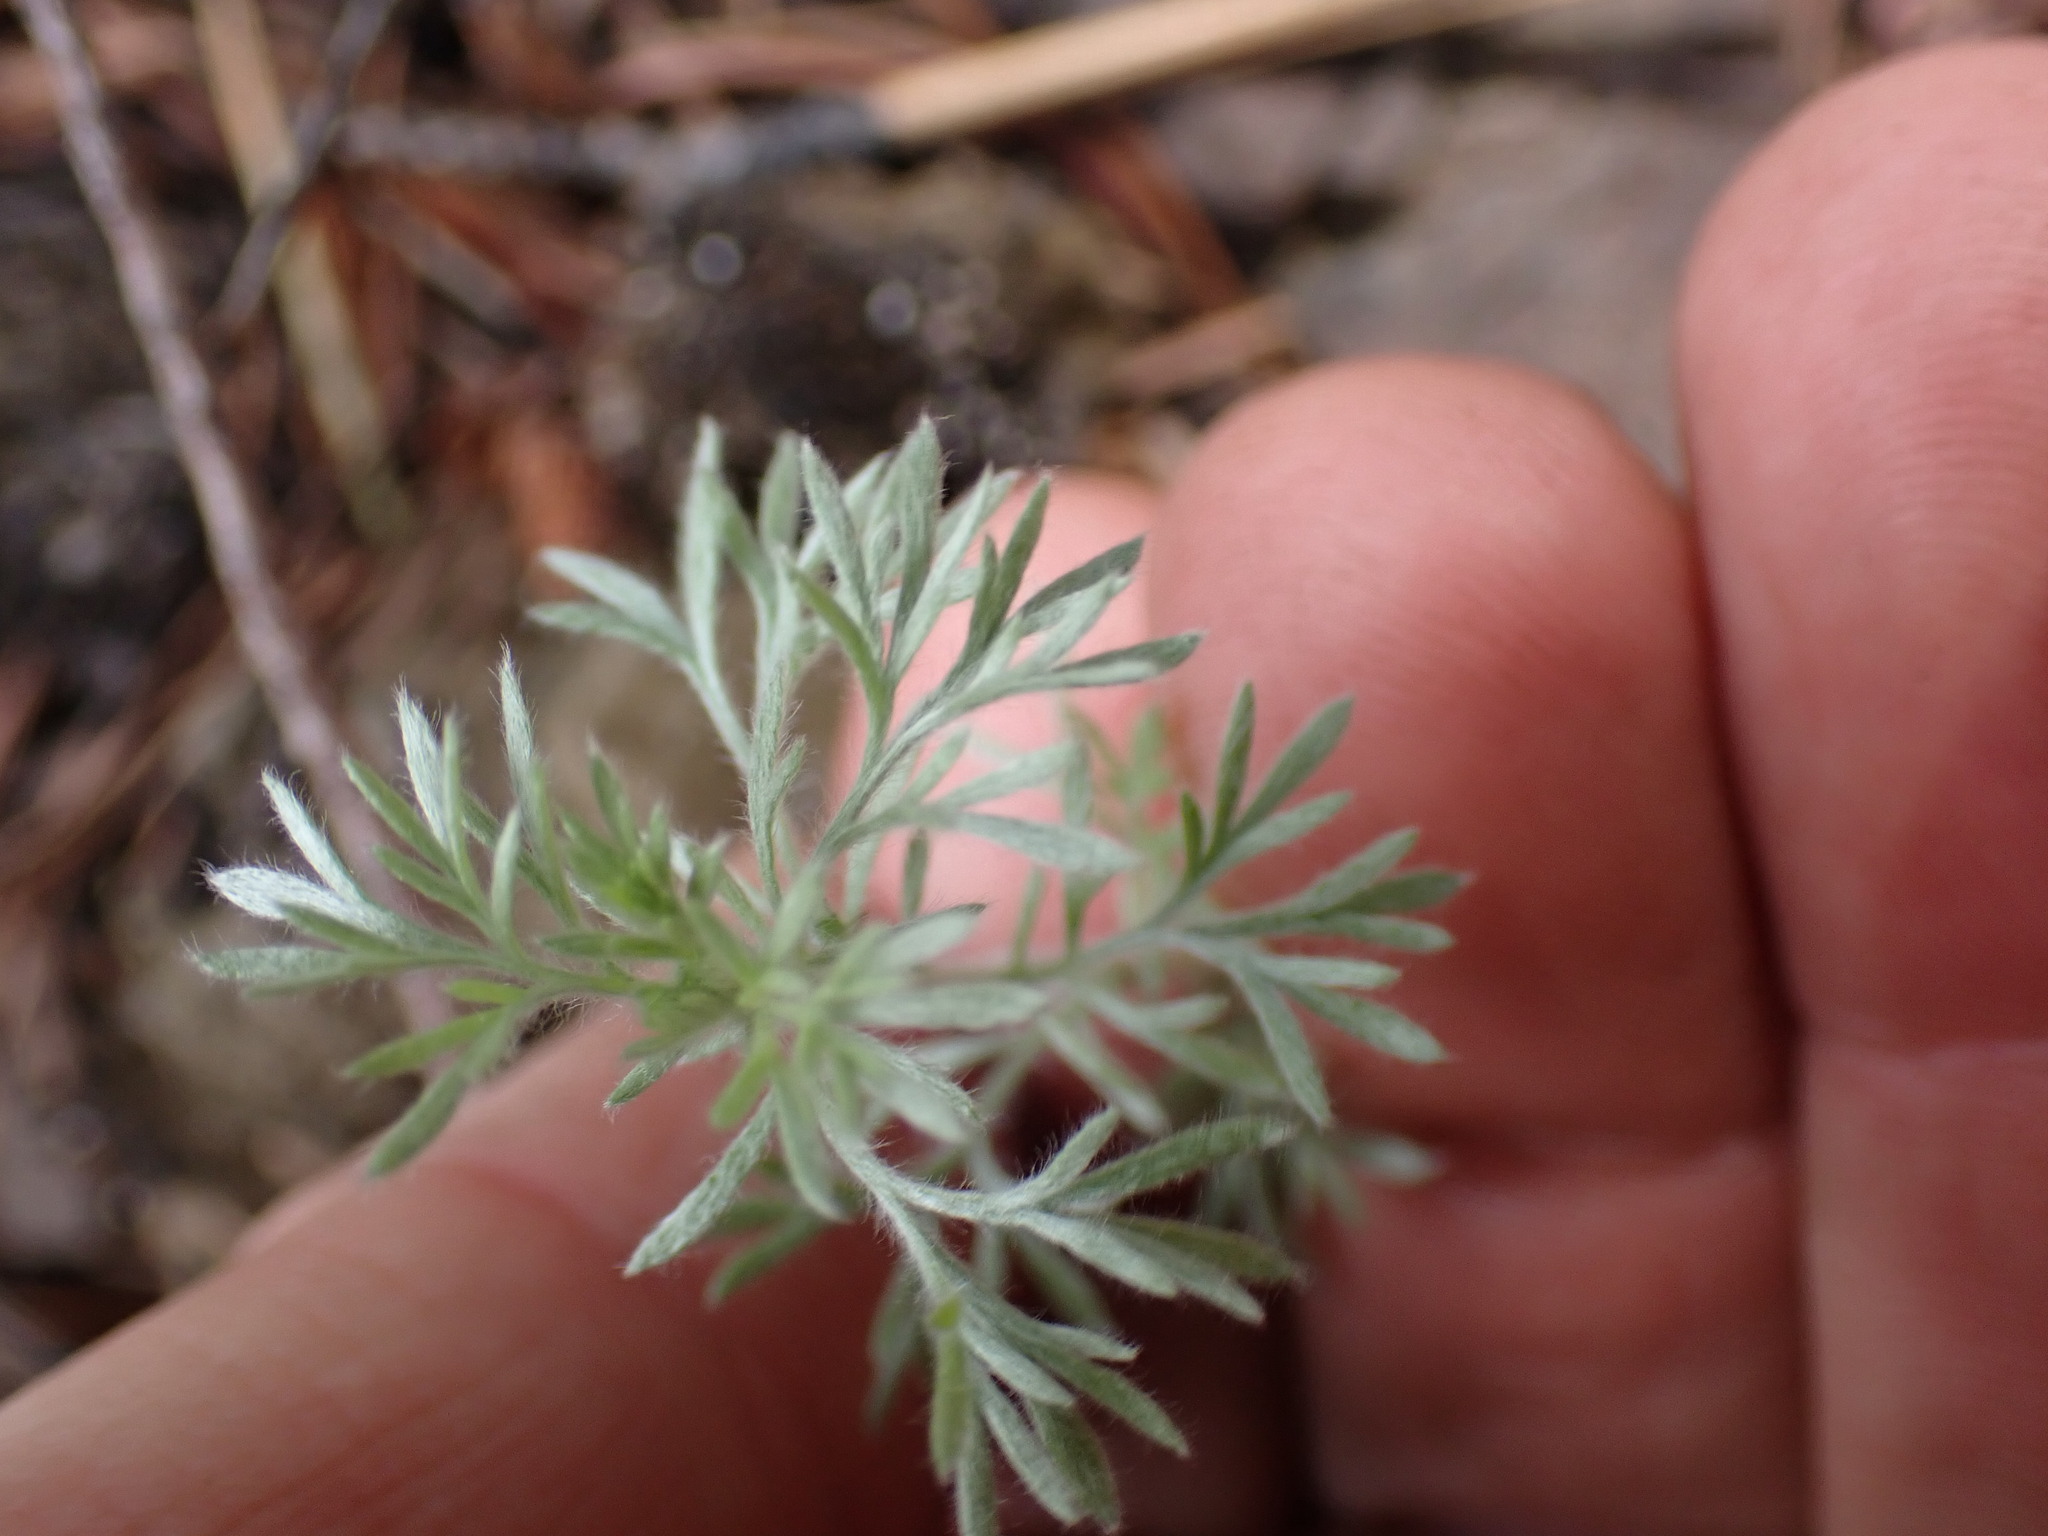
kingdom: Plantae
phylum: Tracheophyta
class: Magnoliopsida
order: Asterales
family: Asteraceae
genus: Artemisia
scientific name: Artemisia frigida
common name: Prairie sagewort
